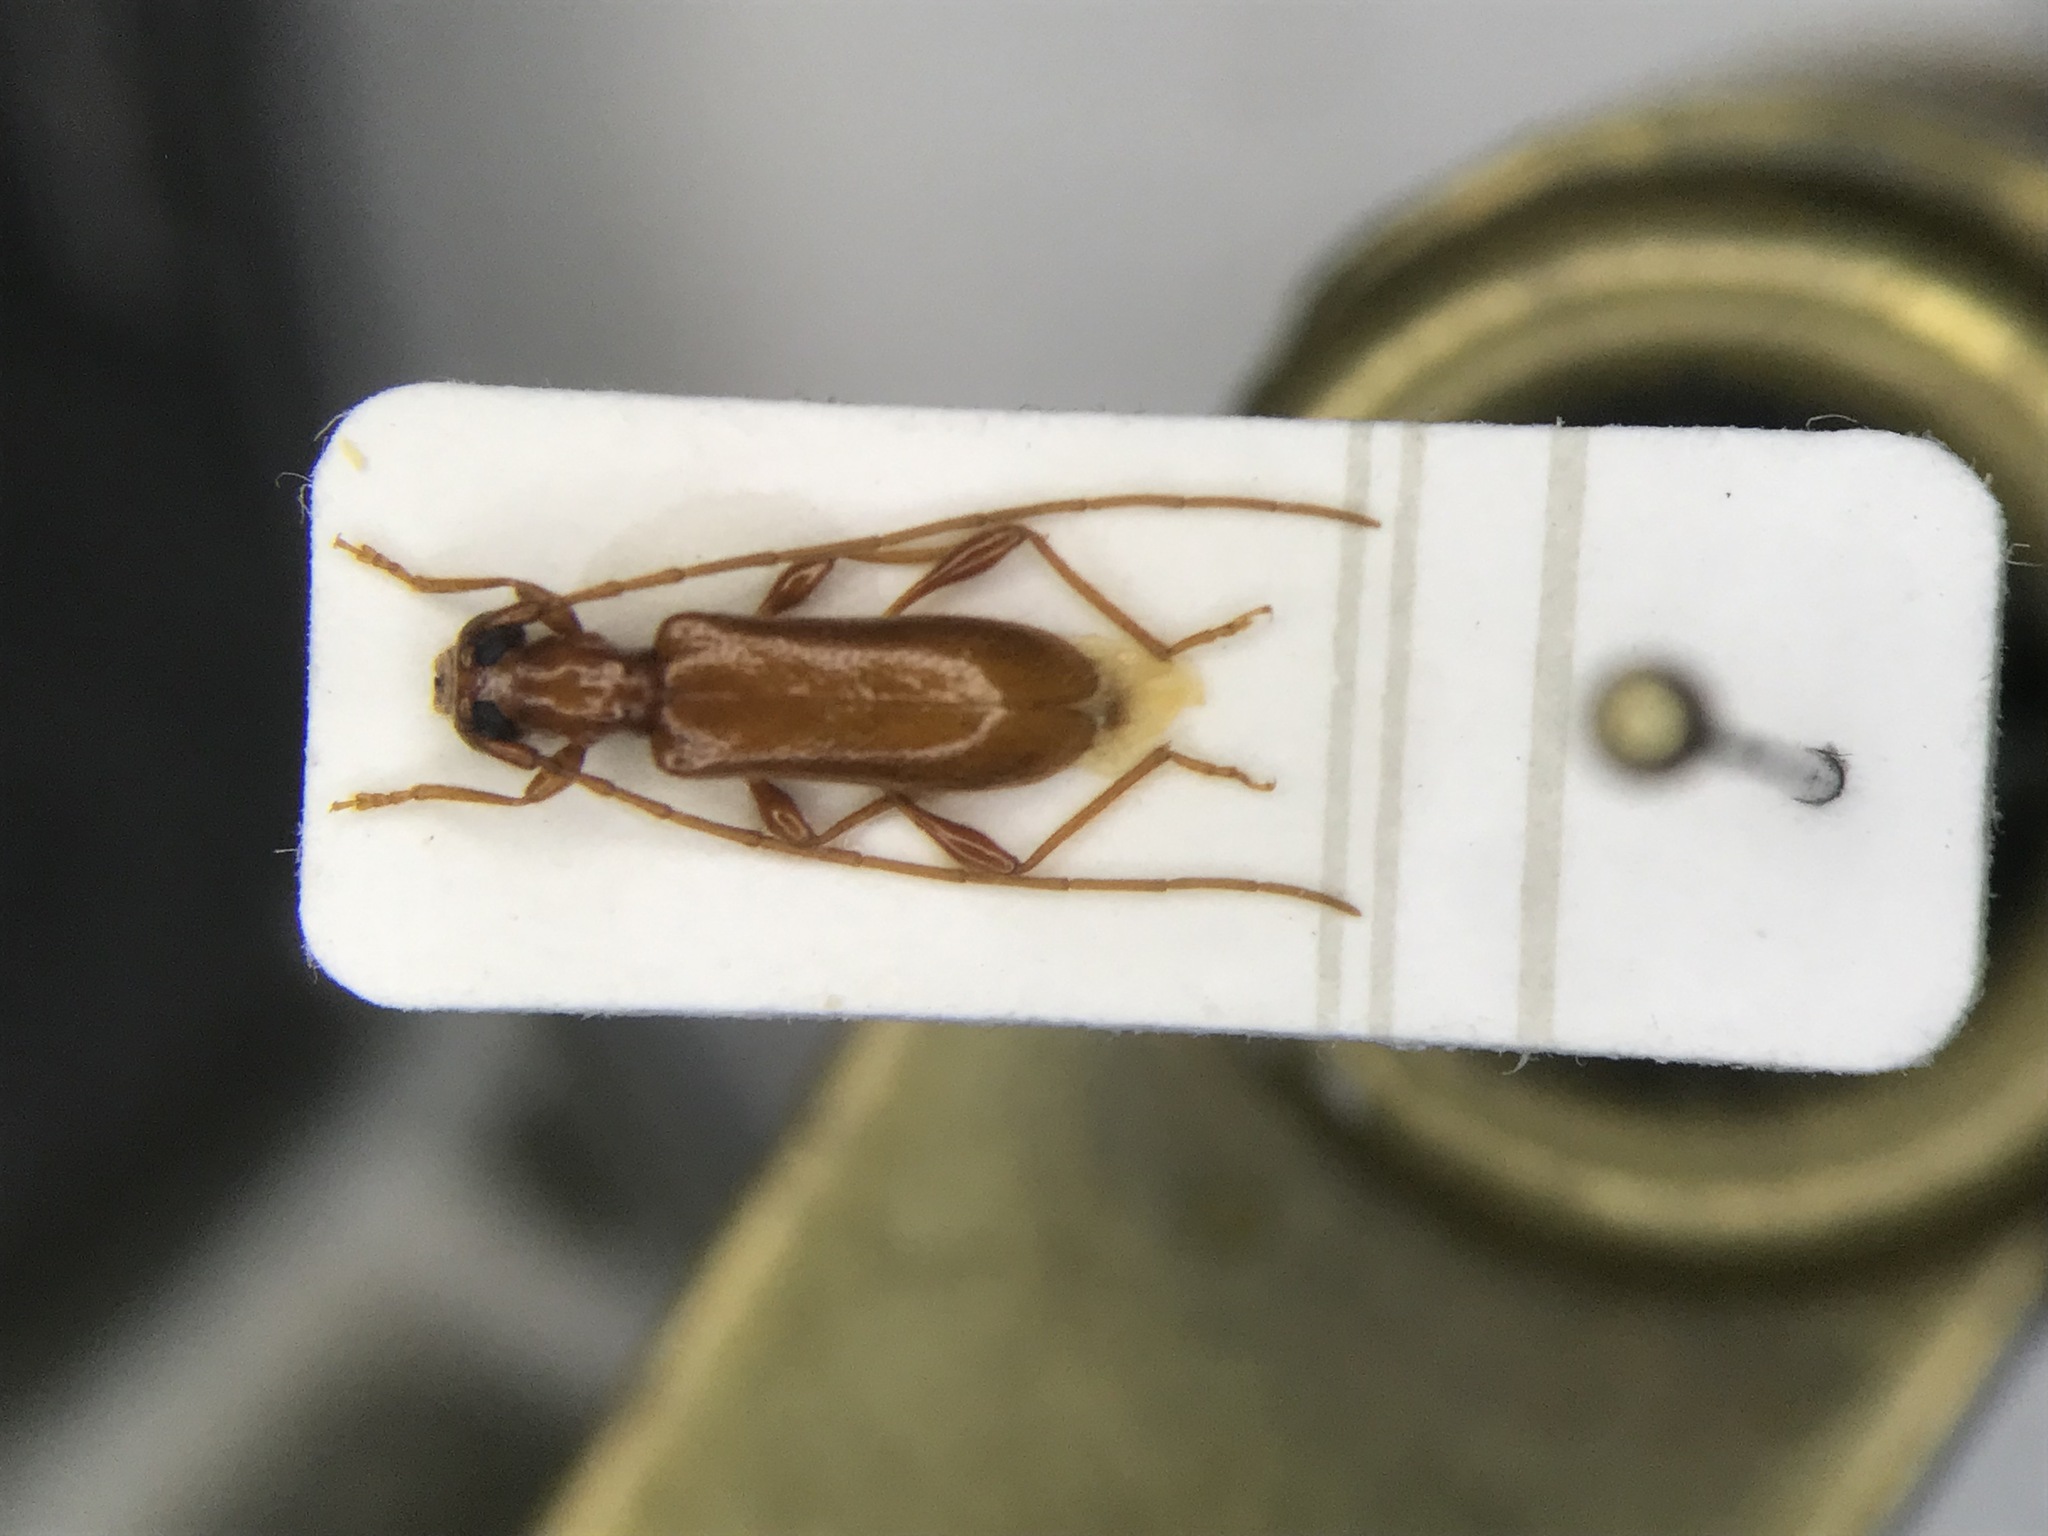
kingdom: Animalia
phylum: Arthropoda
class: Insecta
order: Coleoptera
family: Cerambycidae
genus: Obrium
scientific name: Obrium rufulum
